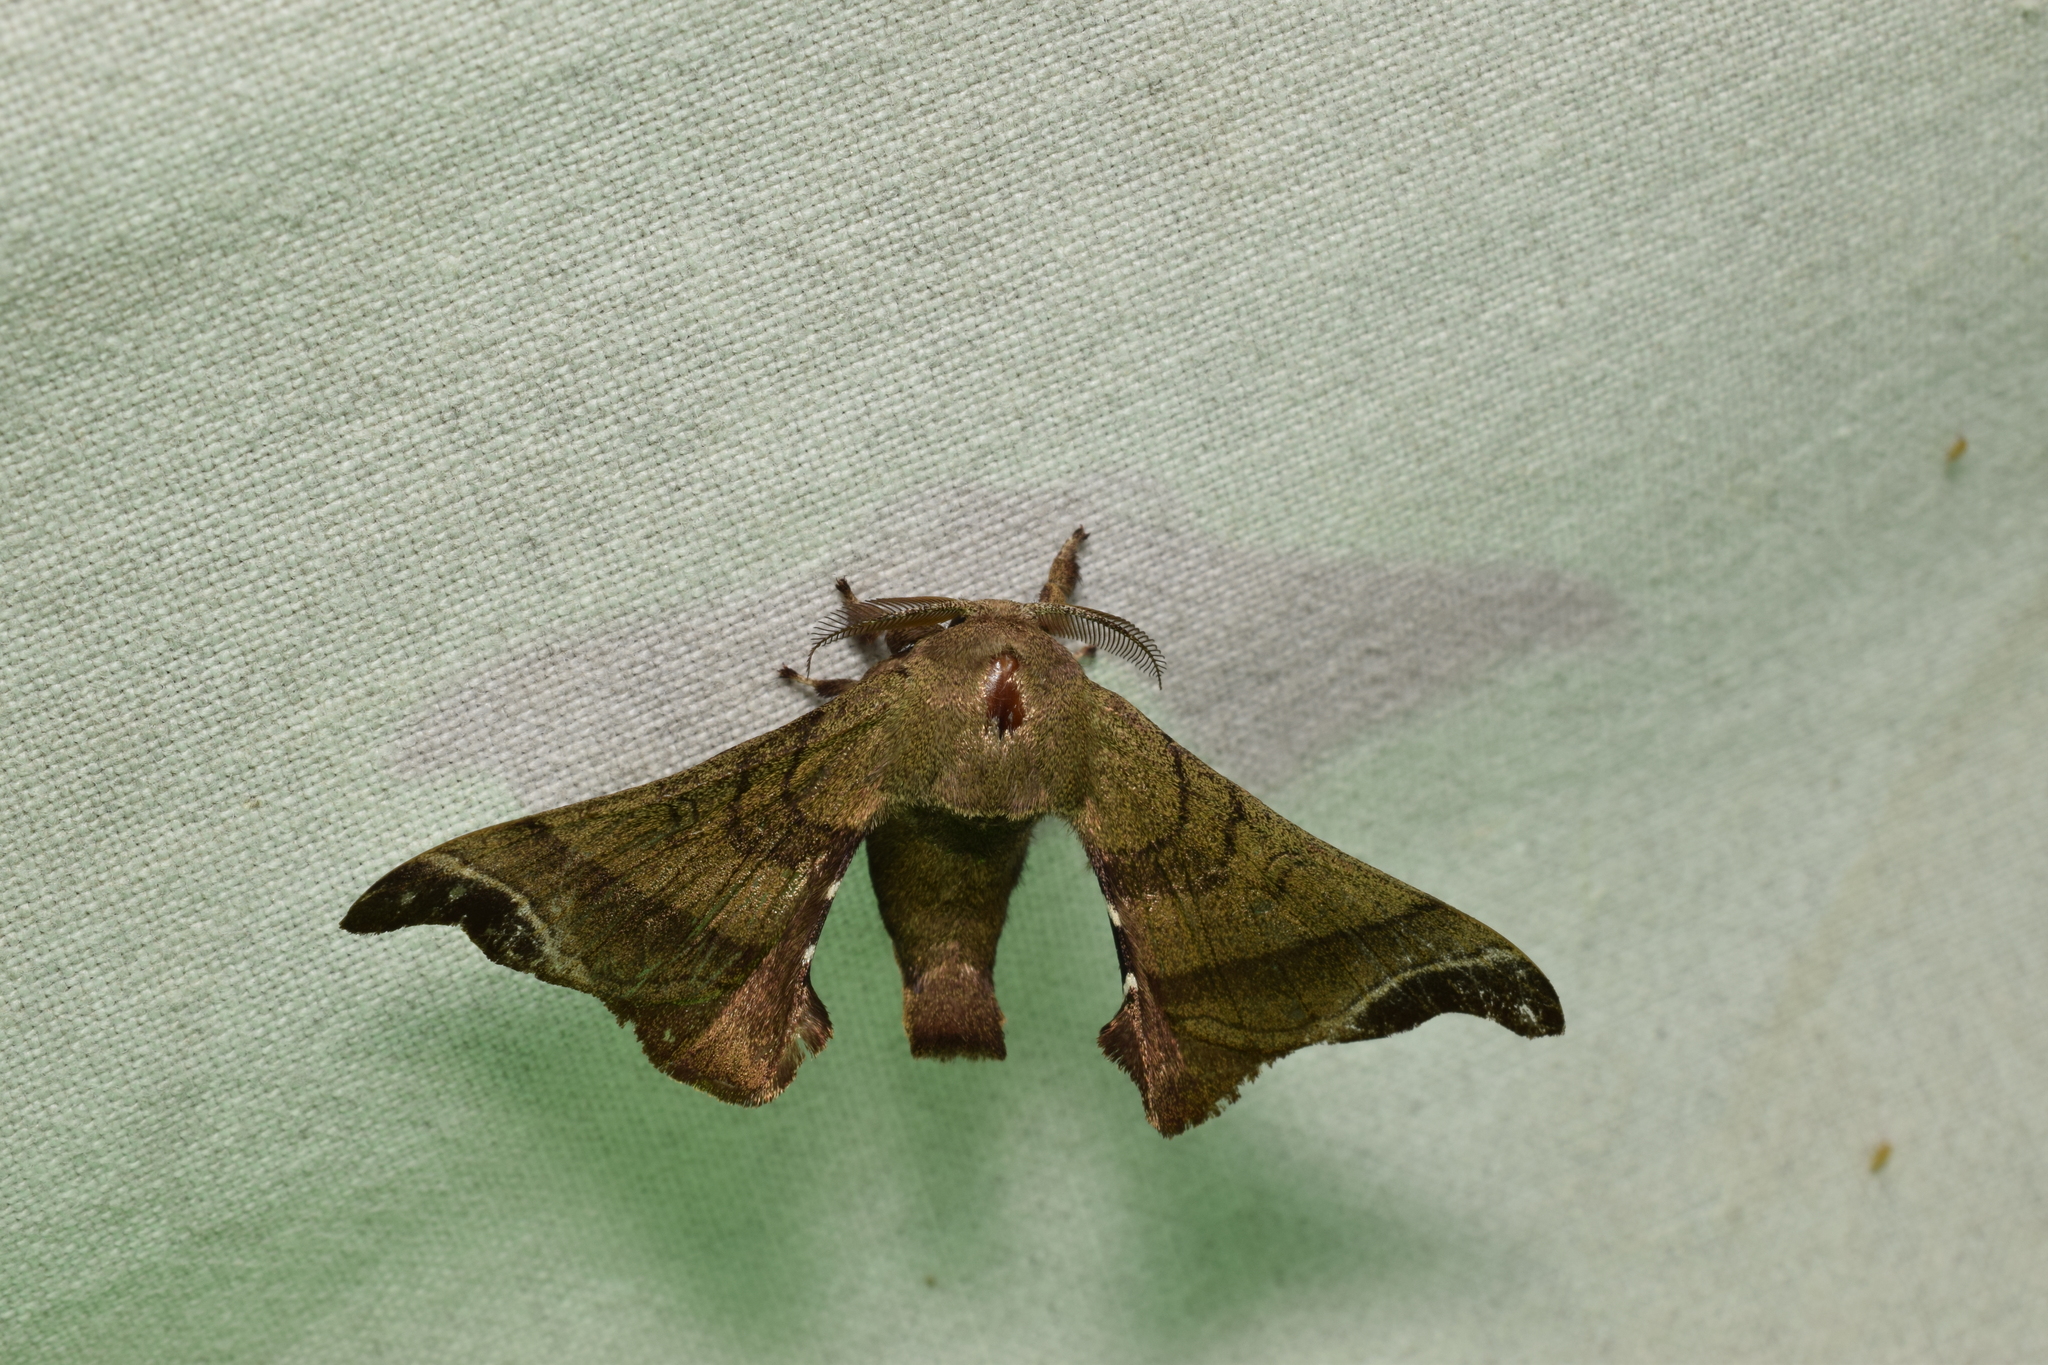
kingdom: Animalia
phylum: Arthropoda
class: Insecta
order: Lepidoptera
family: Bombycidae
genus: Bombyx
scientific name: Bombyx mandarina
